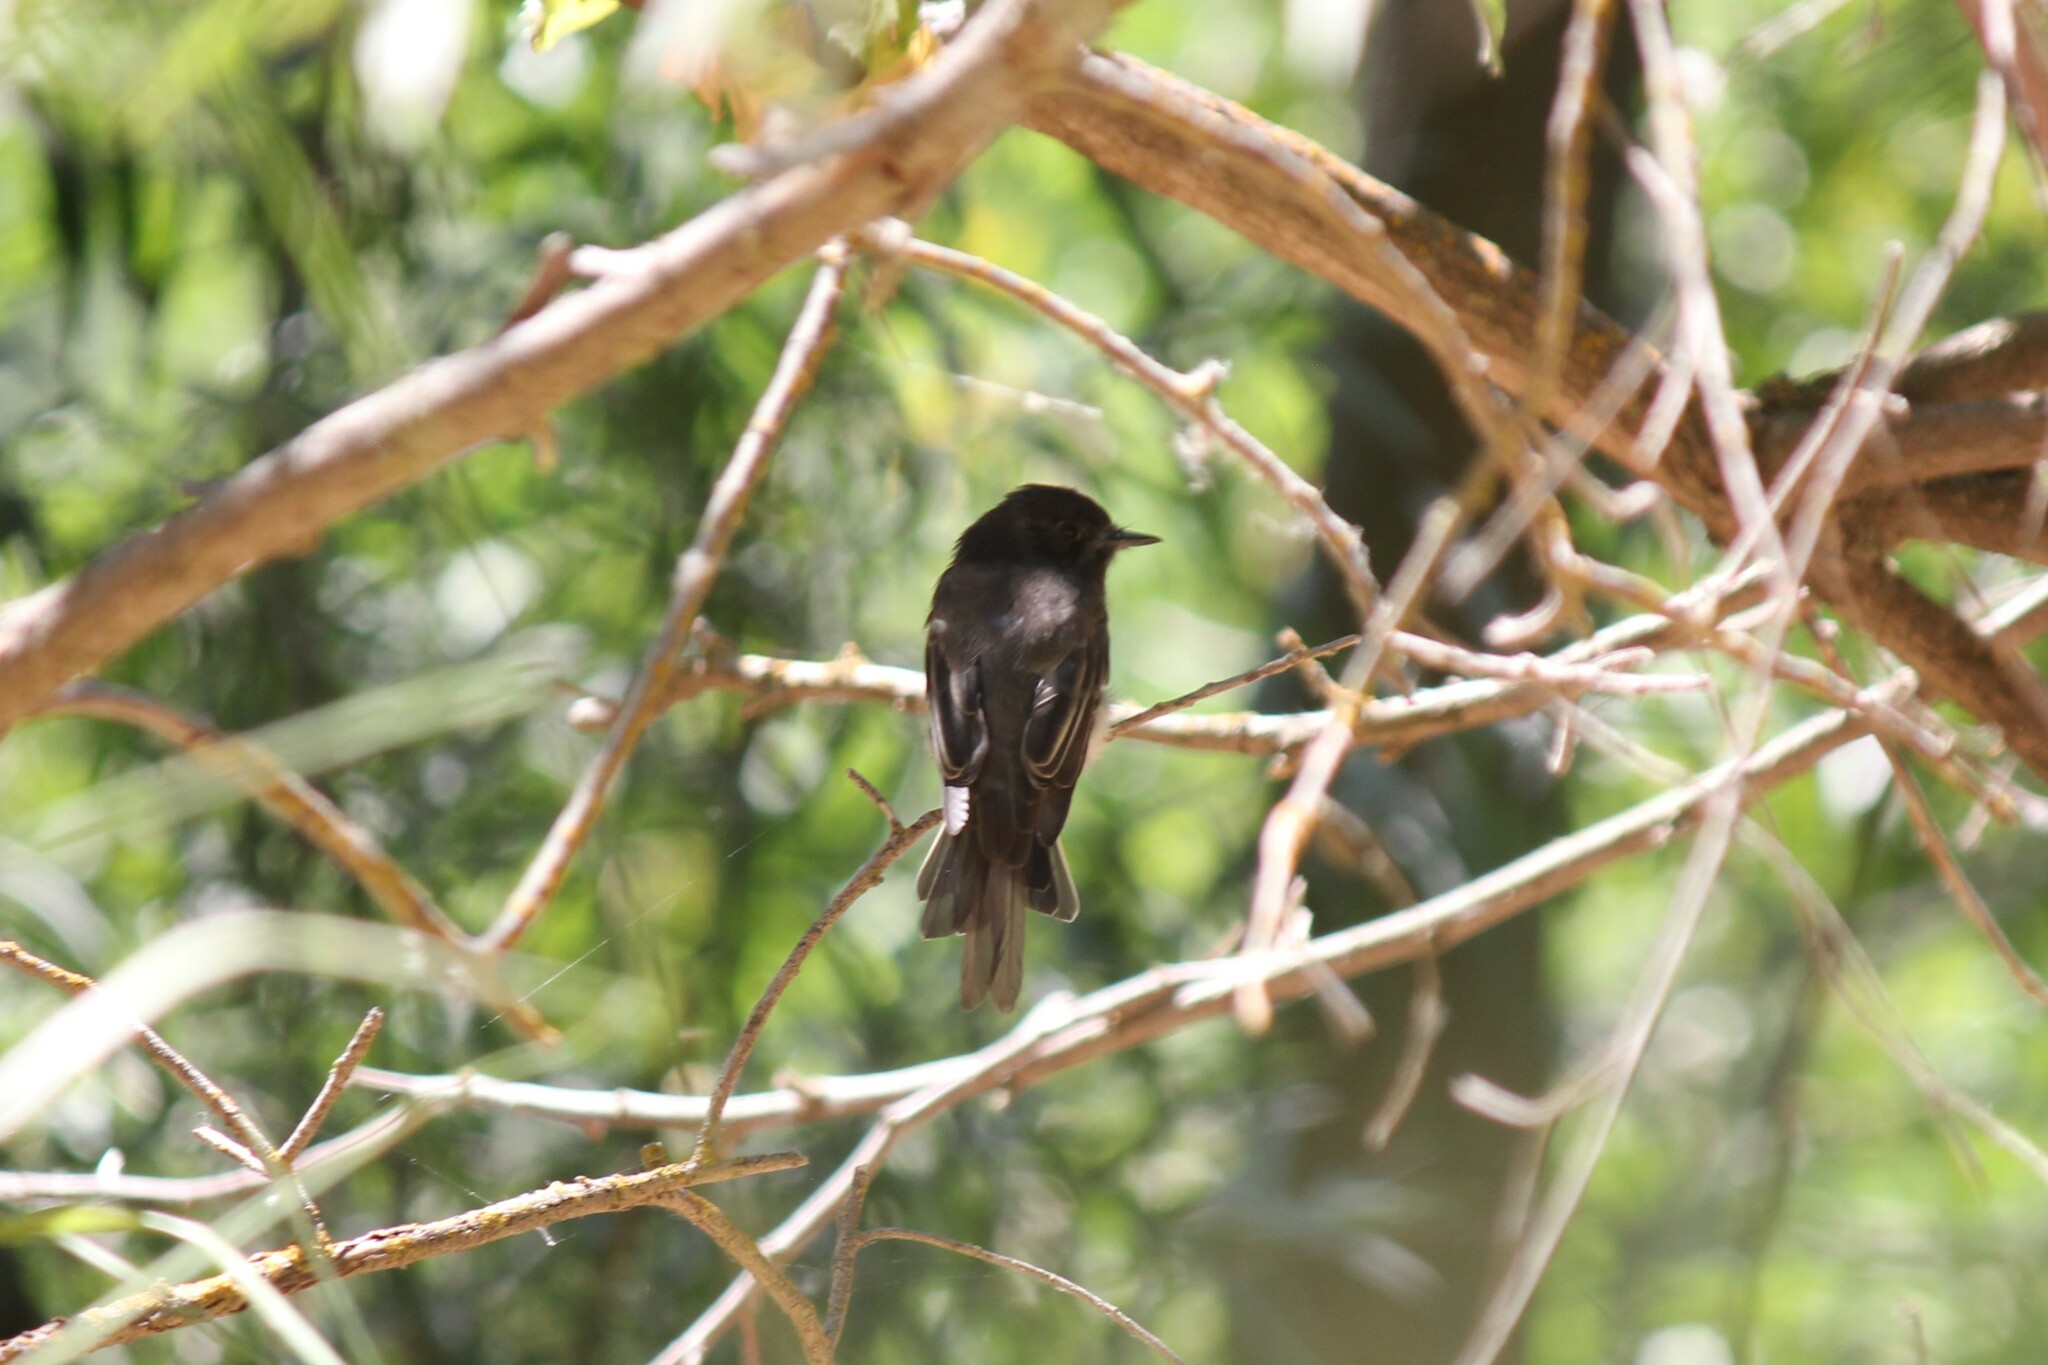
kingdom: Animalia
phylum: Chordata
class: Aves
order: Passeriformes
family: Tyrannidae
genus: Sayornis
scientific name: Sayornis nigricans
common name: Black phoebe
